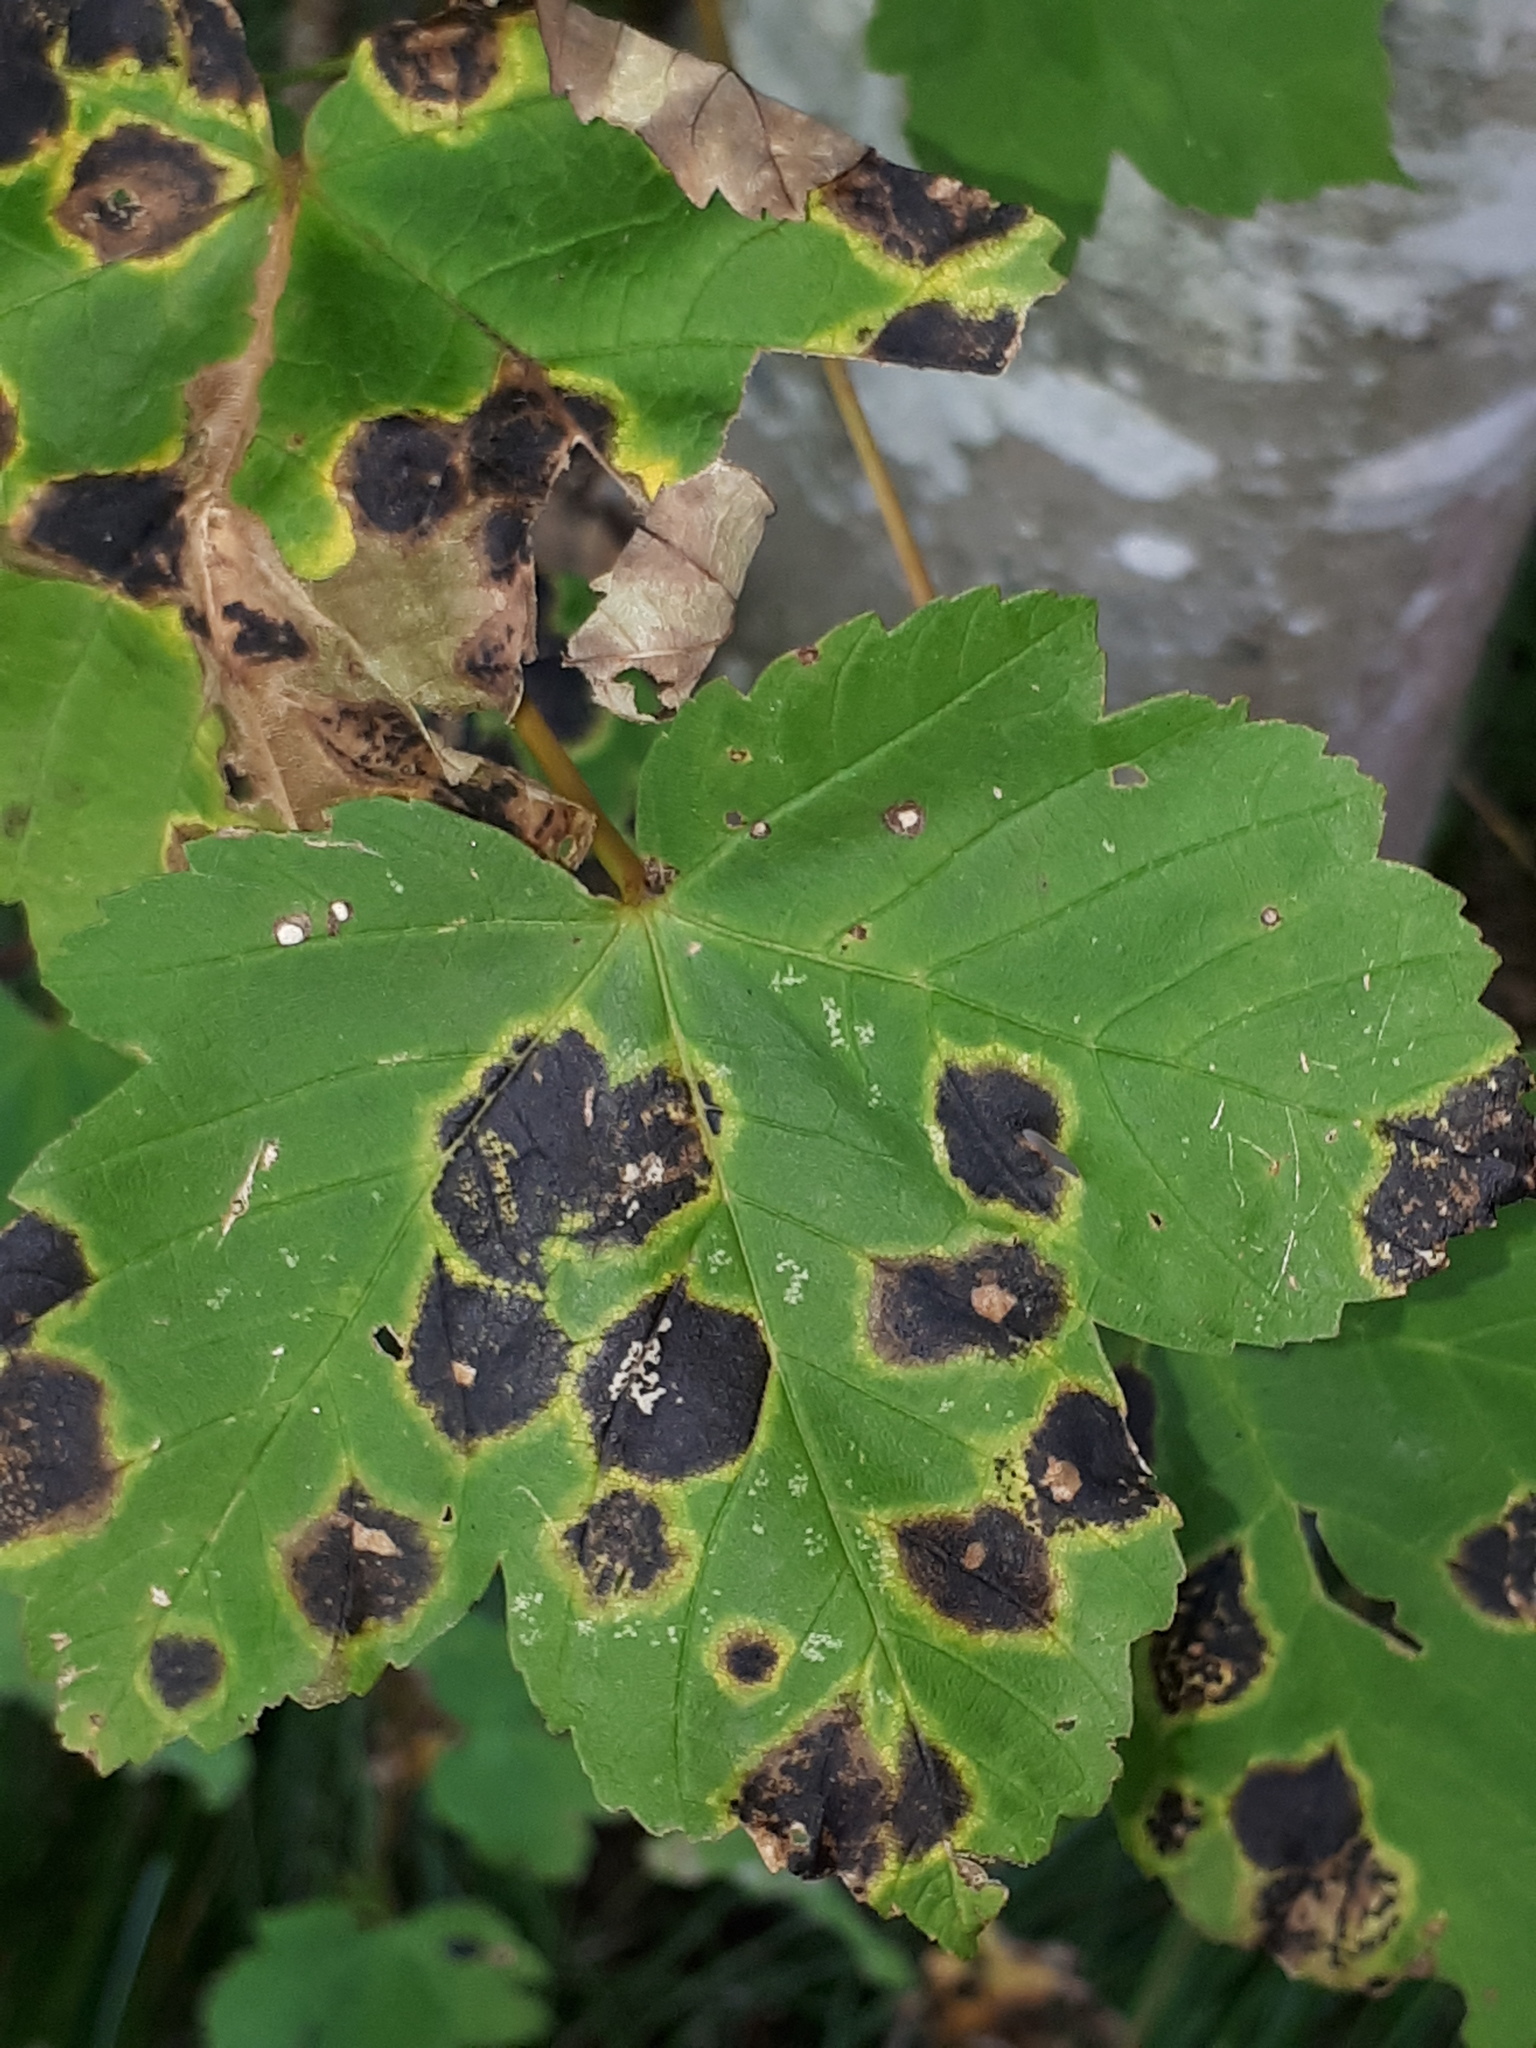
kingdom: Fungi
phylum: Ascomycota
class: Leotiomycetes
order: Rhytismatales
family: Rhytismataceae
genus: Rhytisma
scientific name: Rhytisma acerinum
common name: European tar spot
